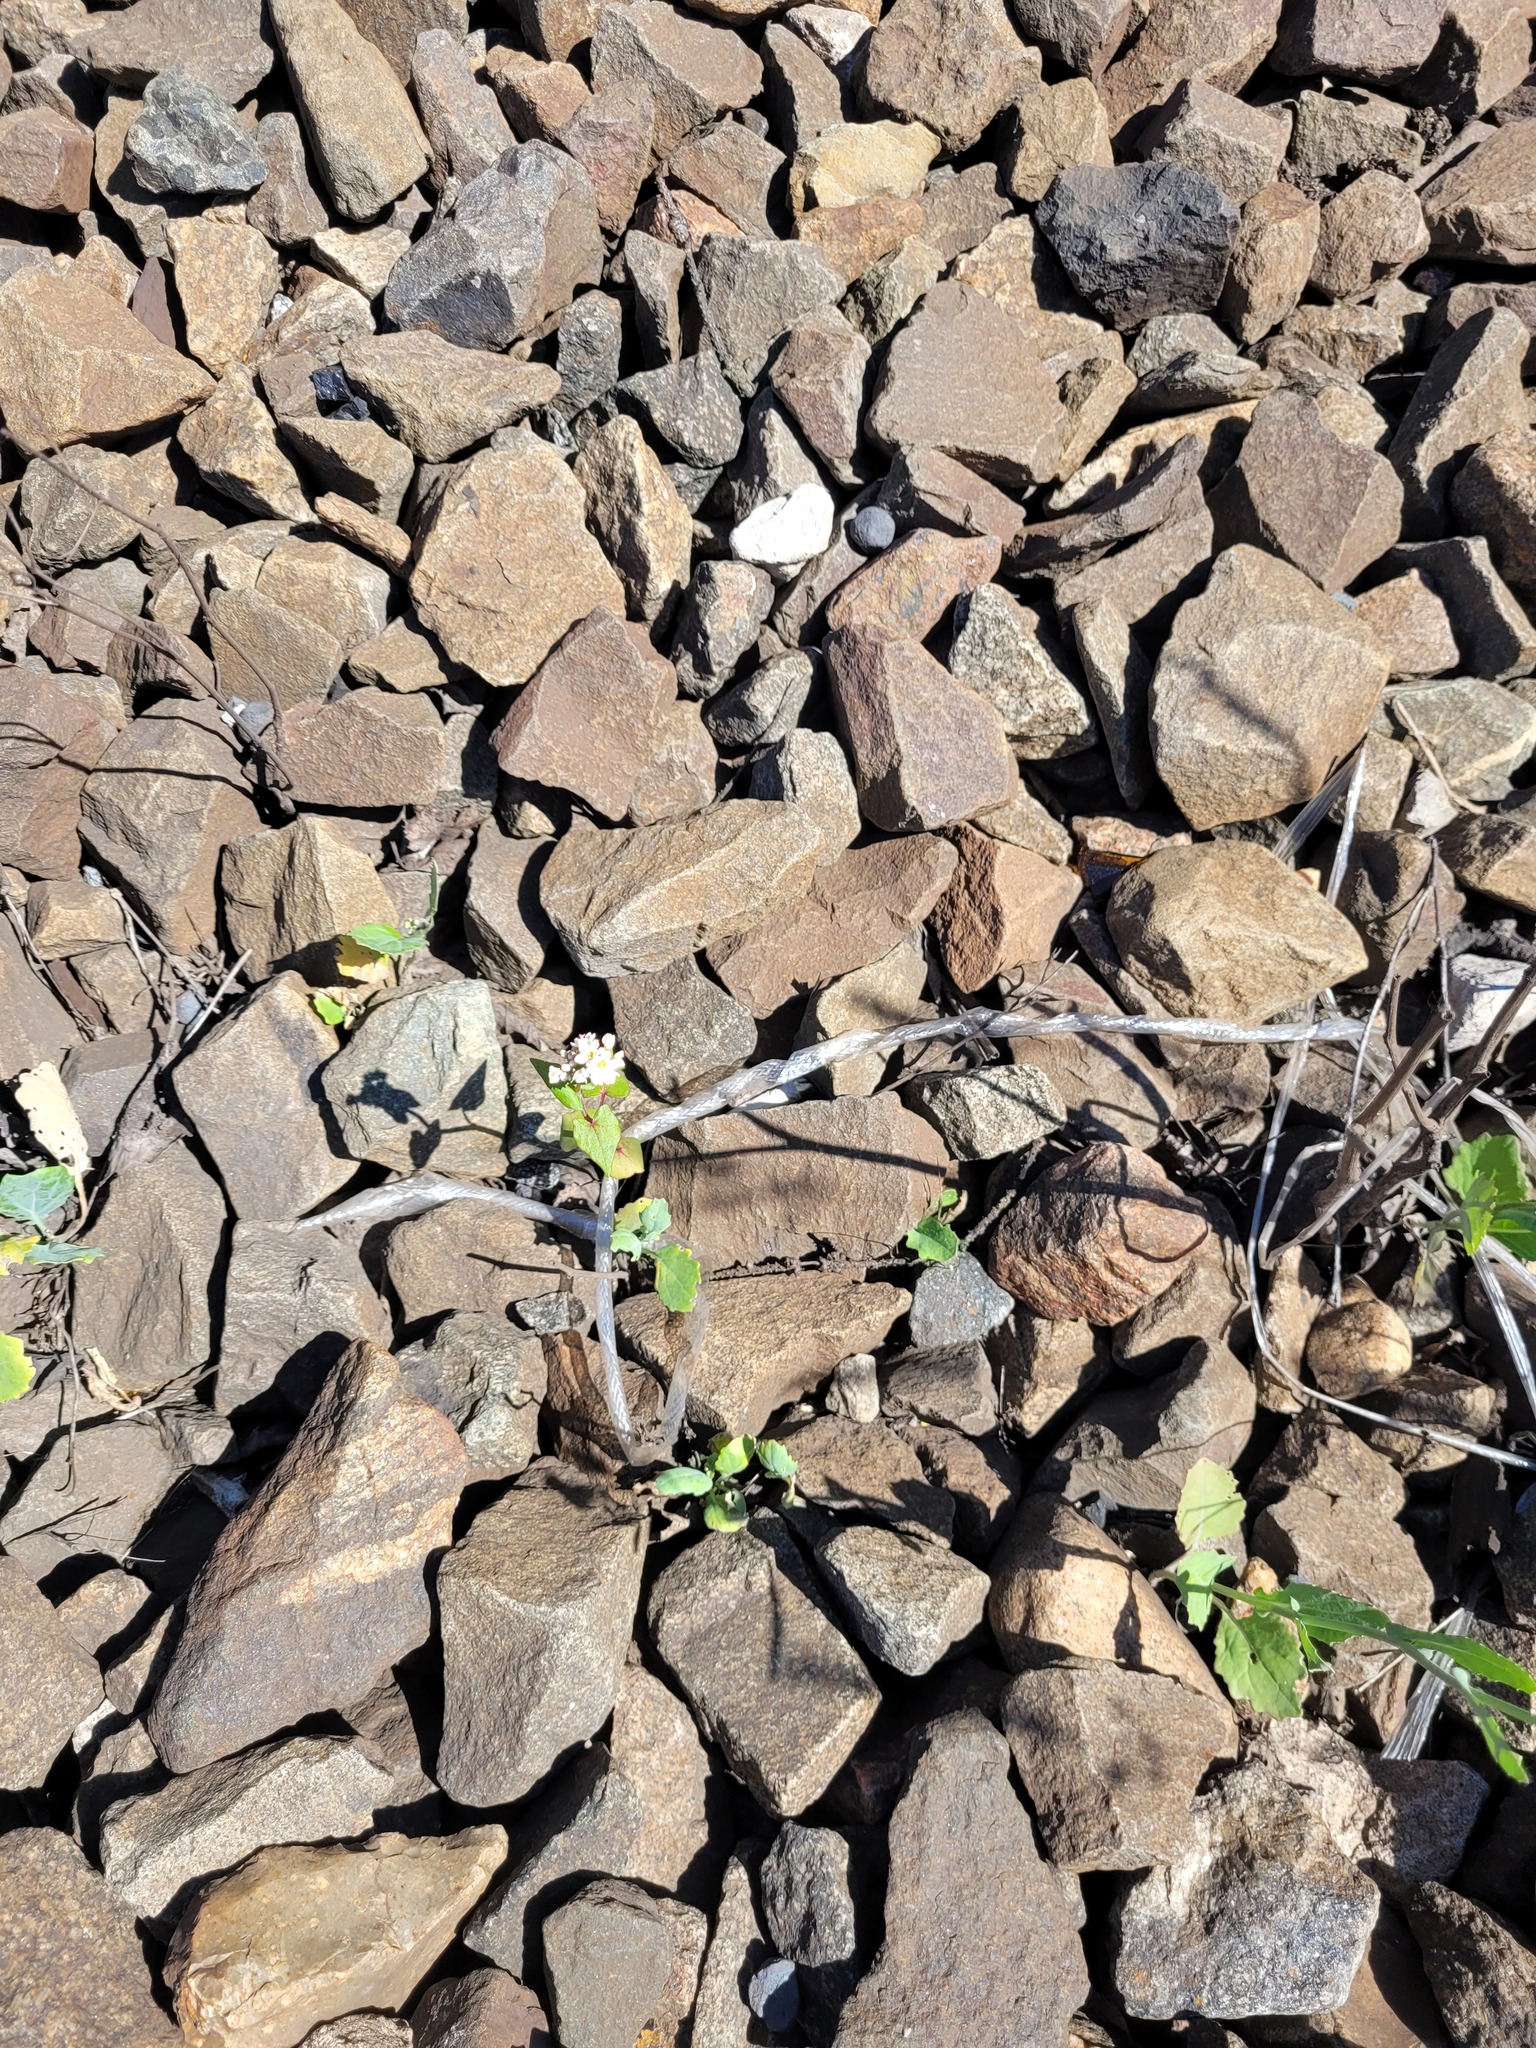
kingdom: Plantae
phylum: Tracheophyta
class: Magnoliopsida
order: Caryophyllales
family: Polygonaceae
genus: Fagopyrum
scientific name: Fagopyrum esculentum
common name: Buckwheat
